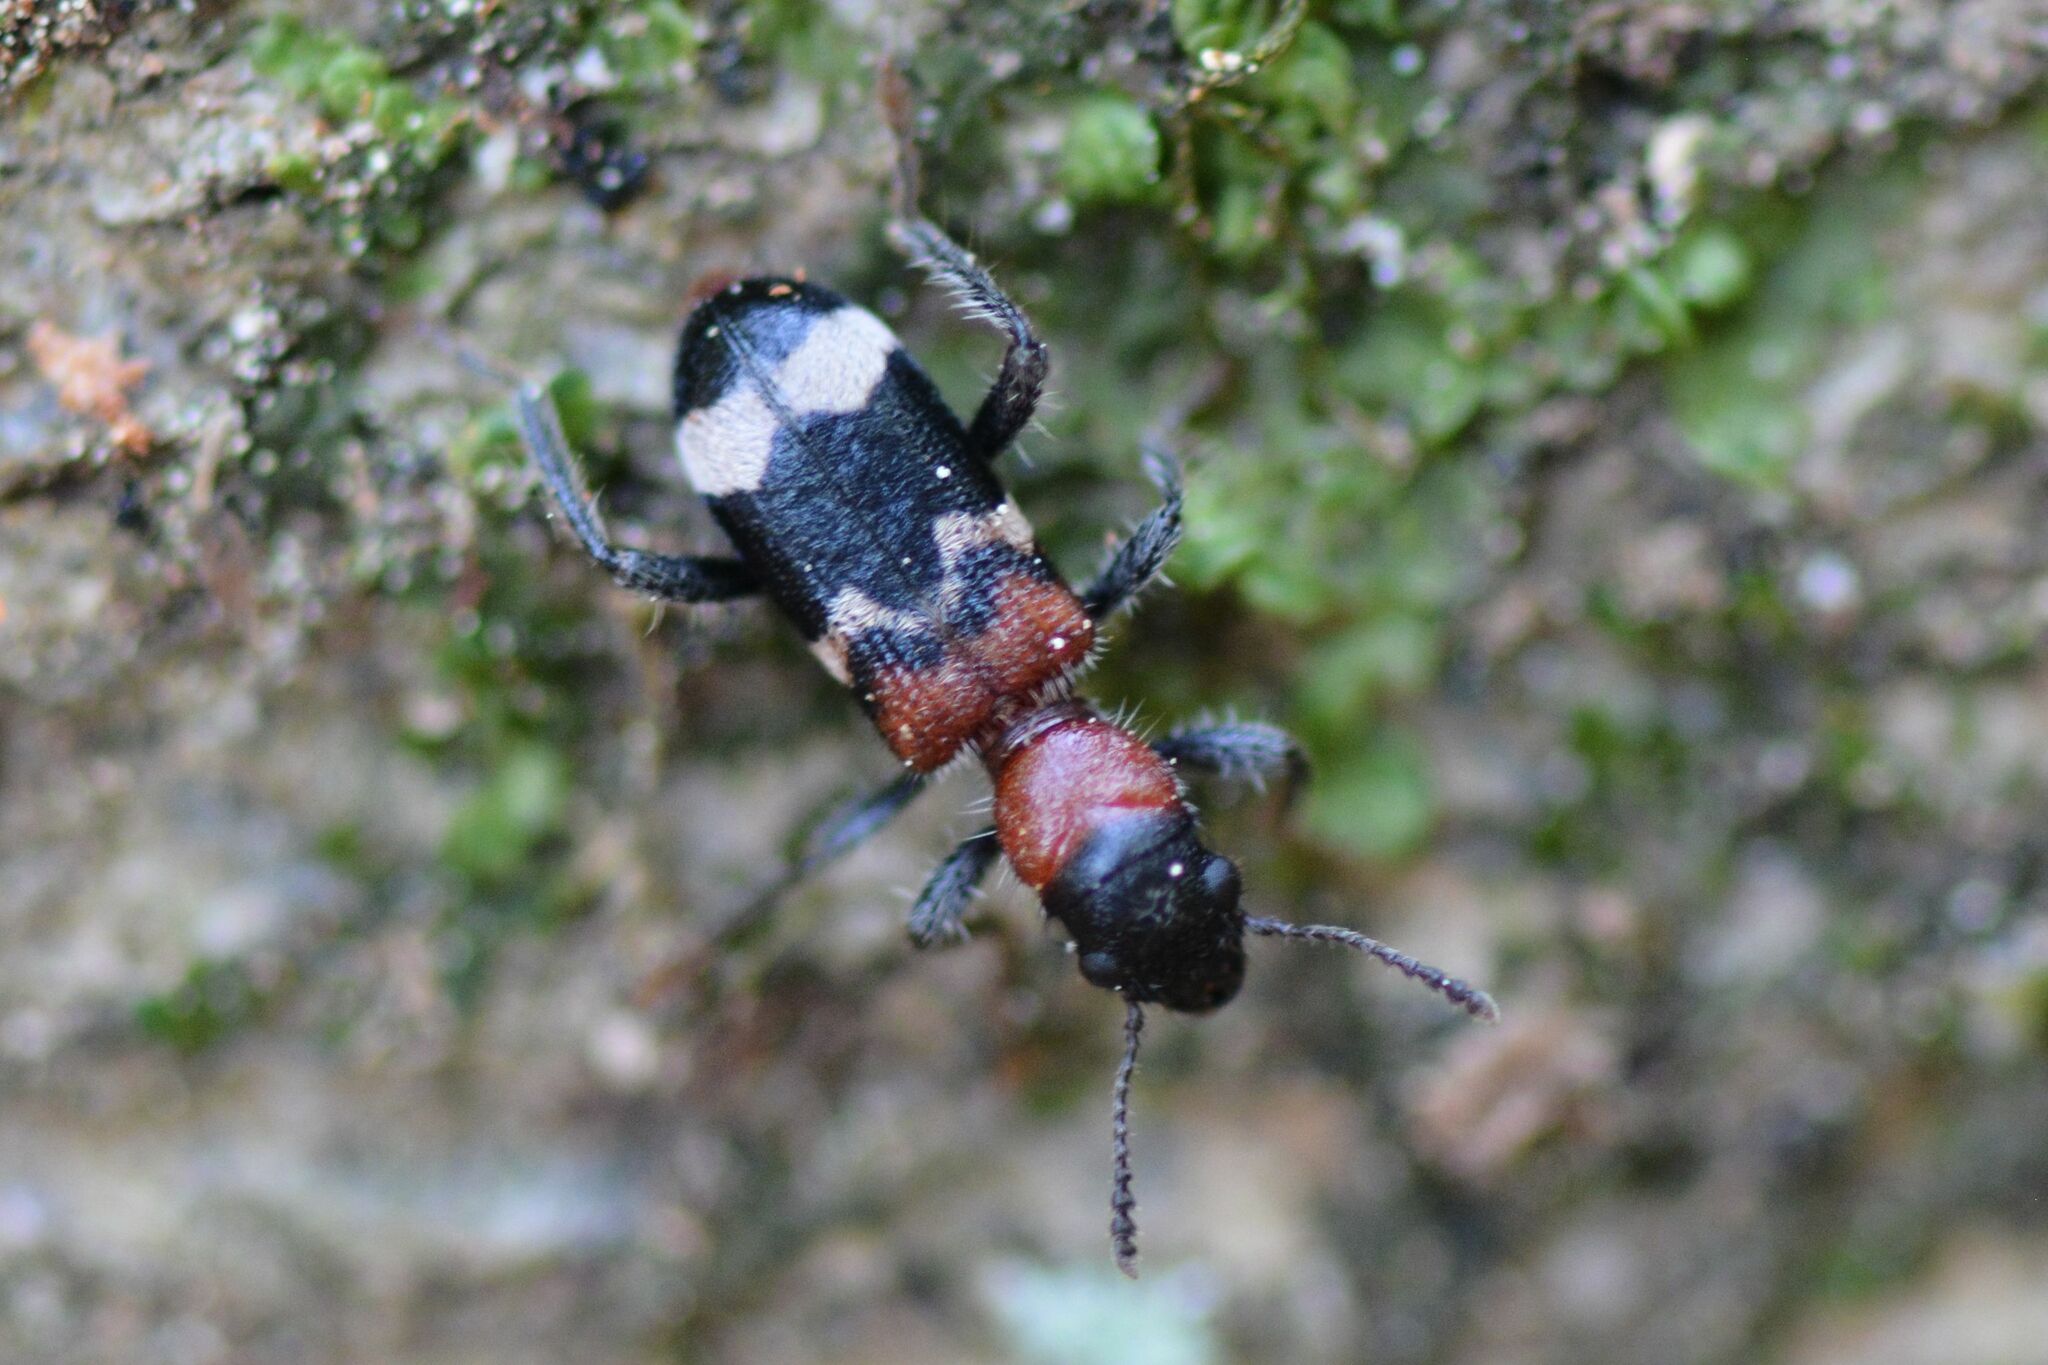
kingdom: Animalia
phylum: Arthropoda
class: Insecta
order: Coleoptera
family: Cleridae
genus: Thanasimus
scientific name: Thanasimus formicarius
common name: Ant beetle
